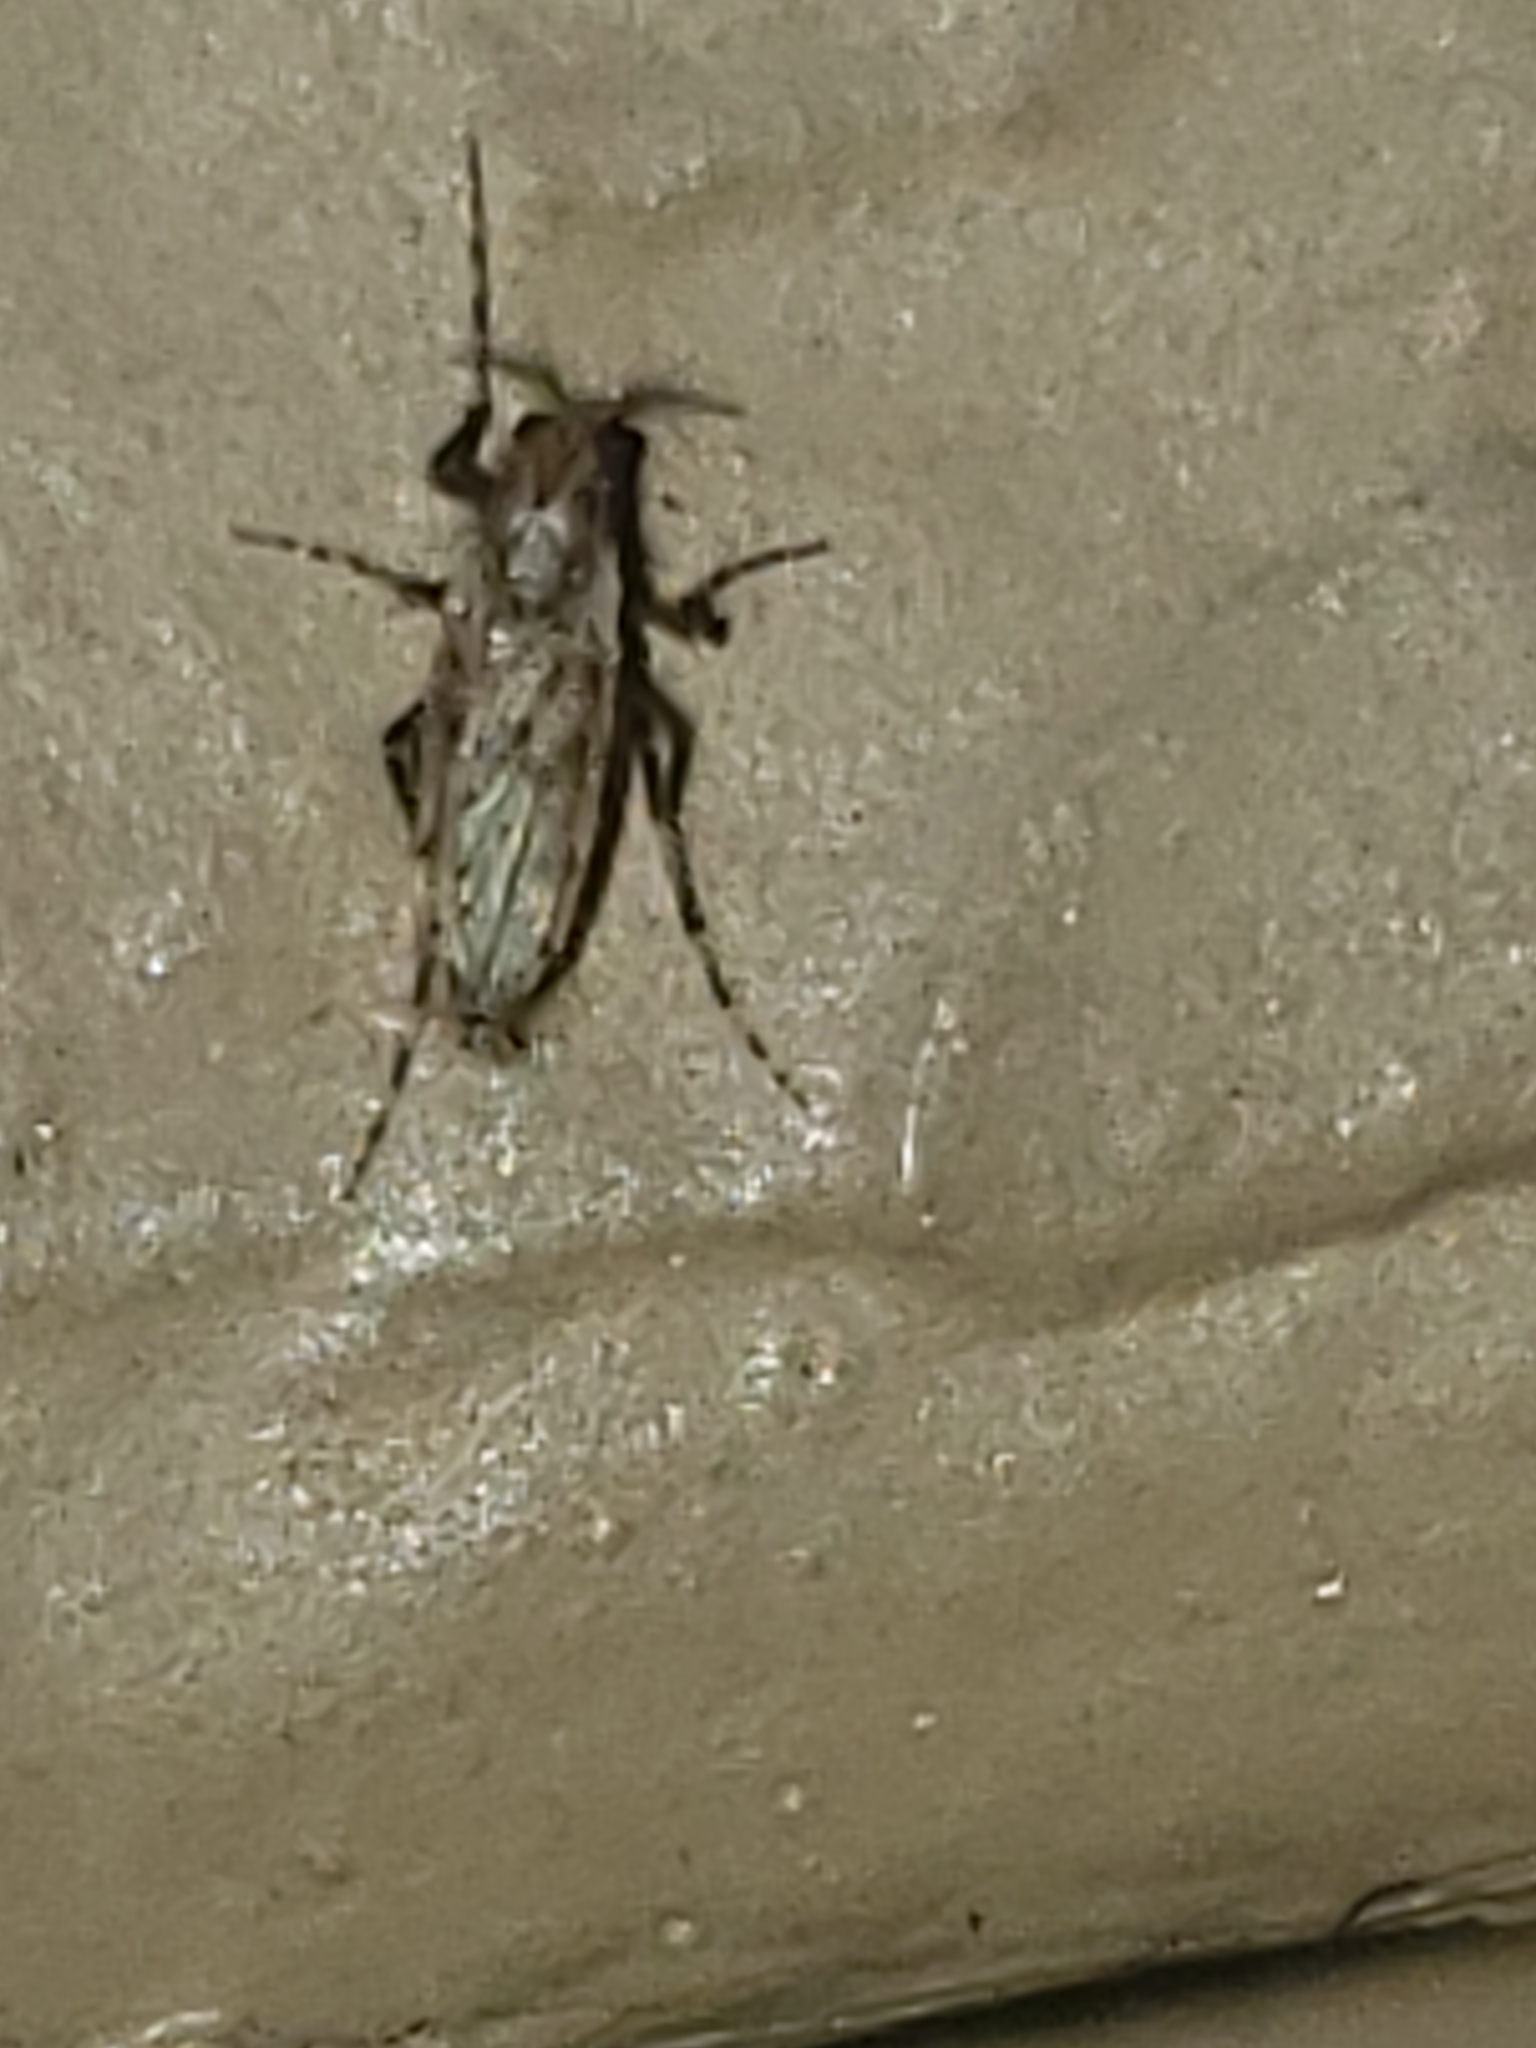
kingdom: Animalia
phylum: Arthropoda
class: Insecta
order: Diptera
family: Chaoboridae
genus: Chaoborus
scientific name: Chaoborus punctipennis
